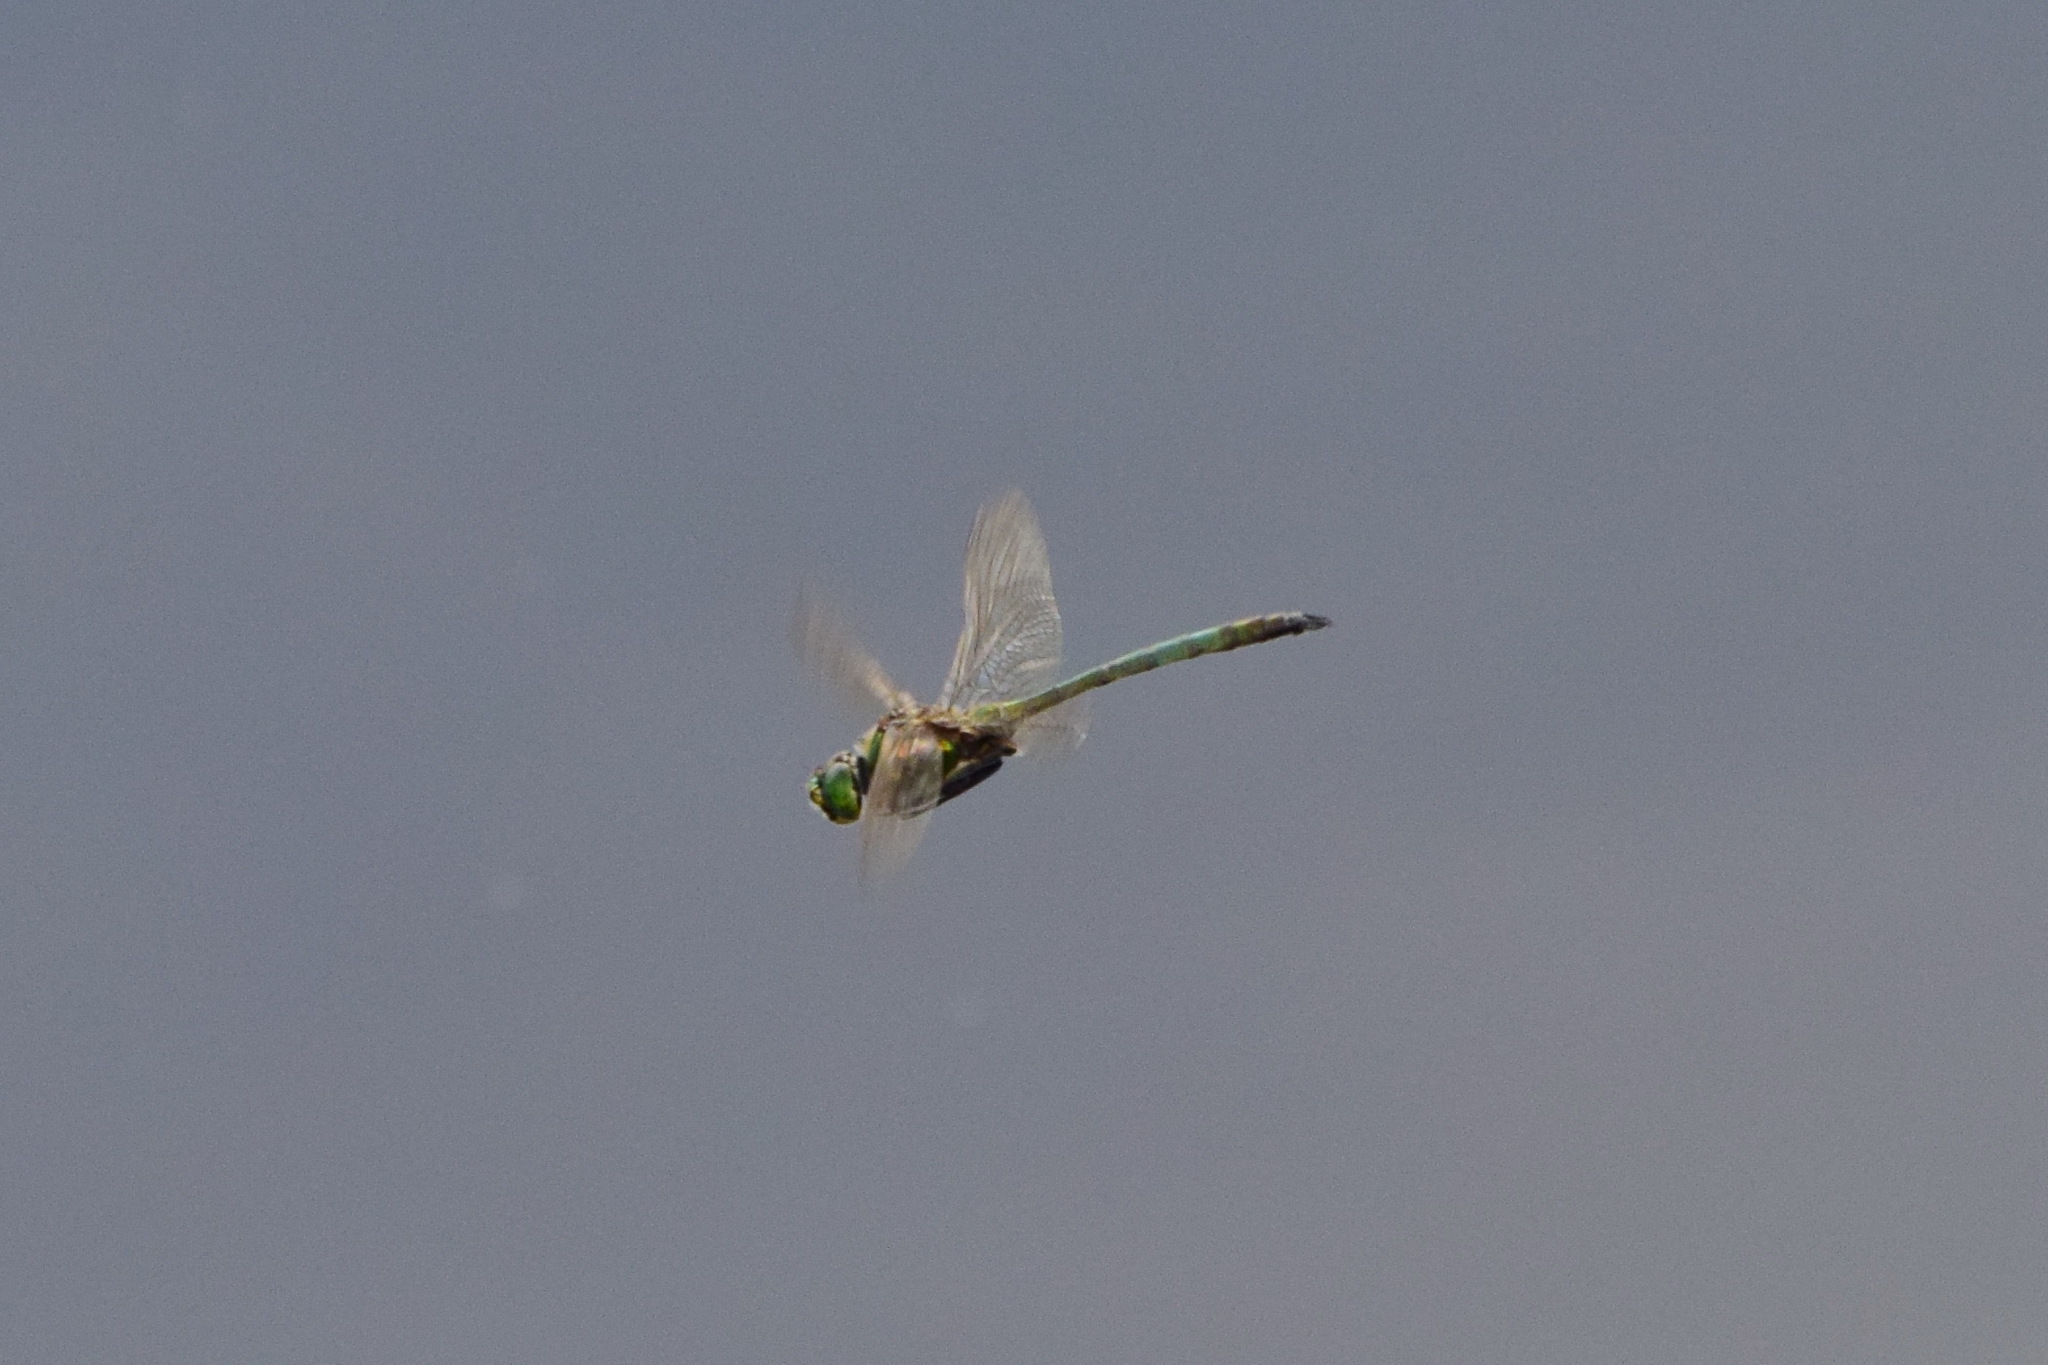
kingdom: Animalia
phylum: Arthropoda
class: Insecta
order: Odonata
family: Corduliidae
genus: Somatochlora
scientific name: Somatochlora metallica
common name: Brilliant emerald
